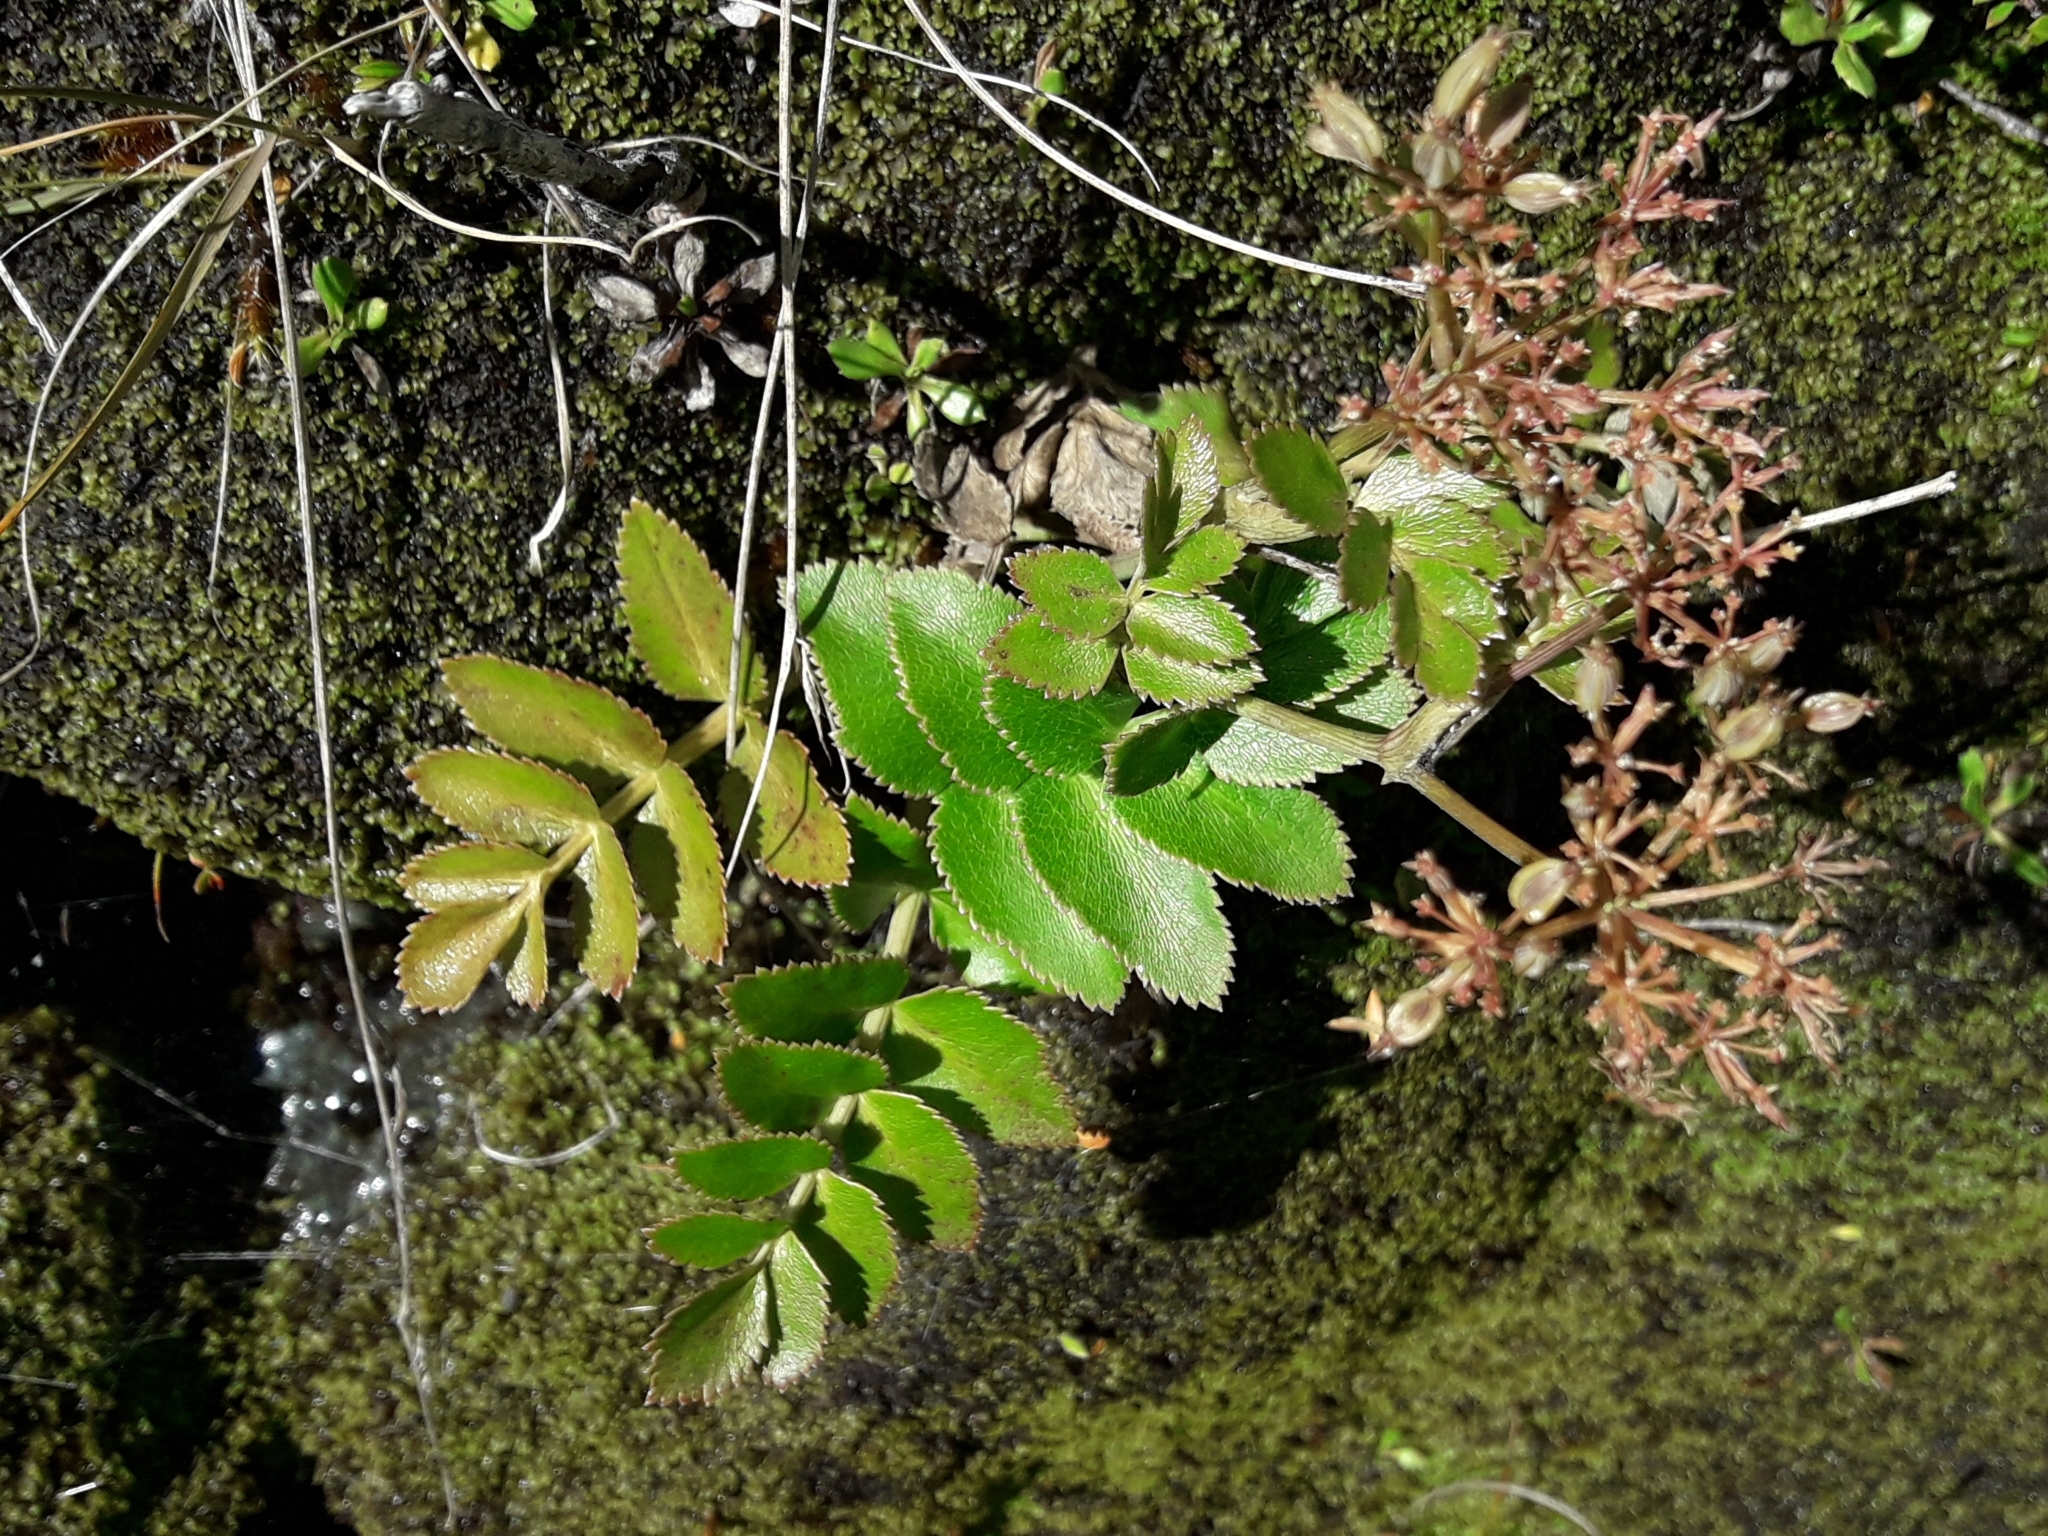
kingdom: Plantae
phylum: Tracheophyta
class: Magnoliopsida
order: Apiales
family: Apiaceae
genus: Gingidia
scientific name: Gingidia montana
